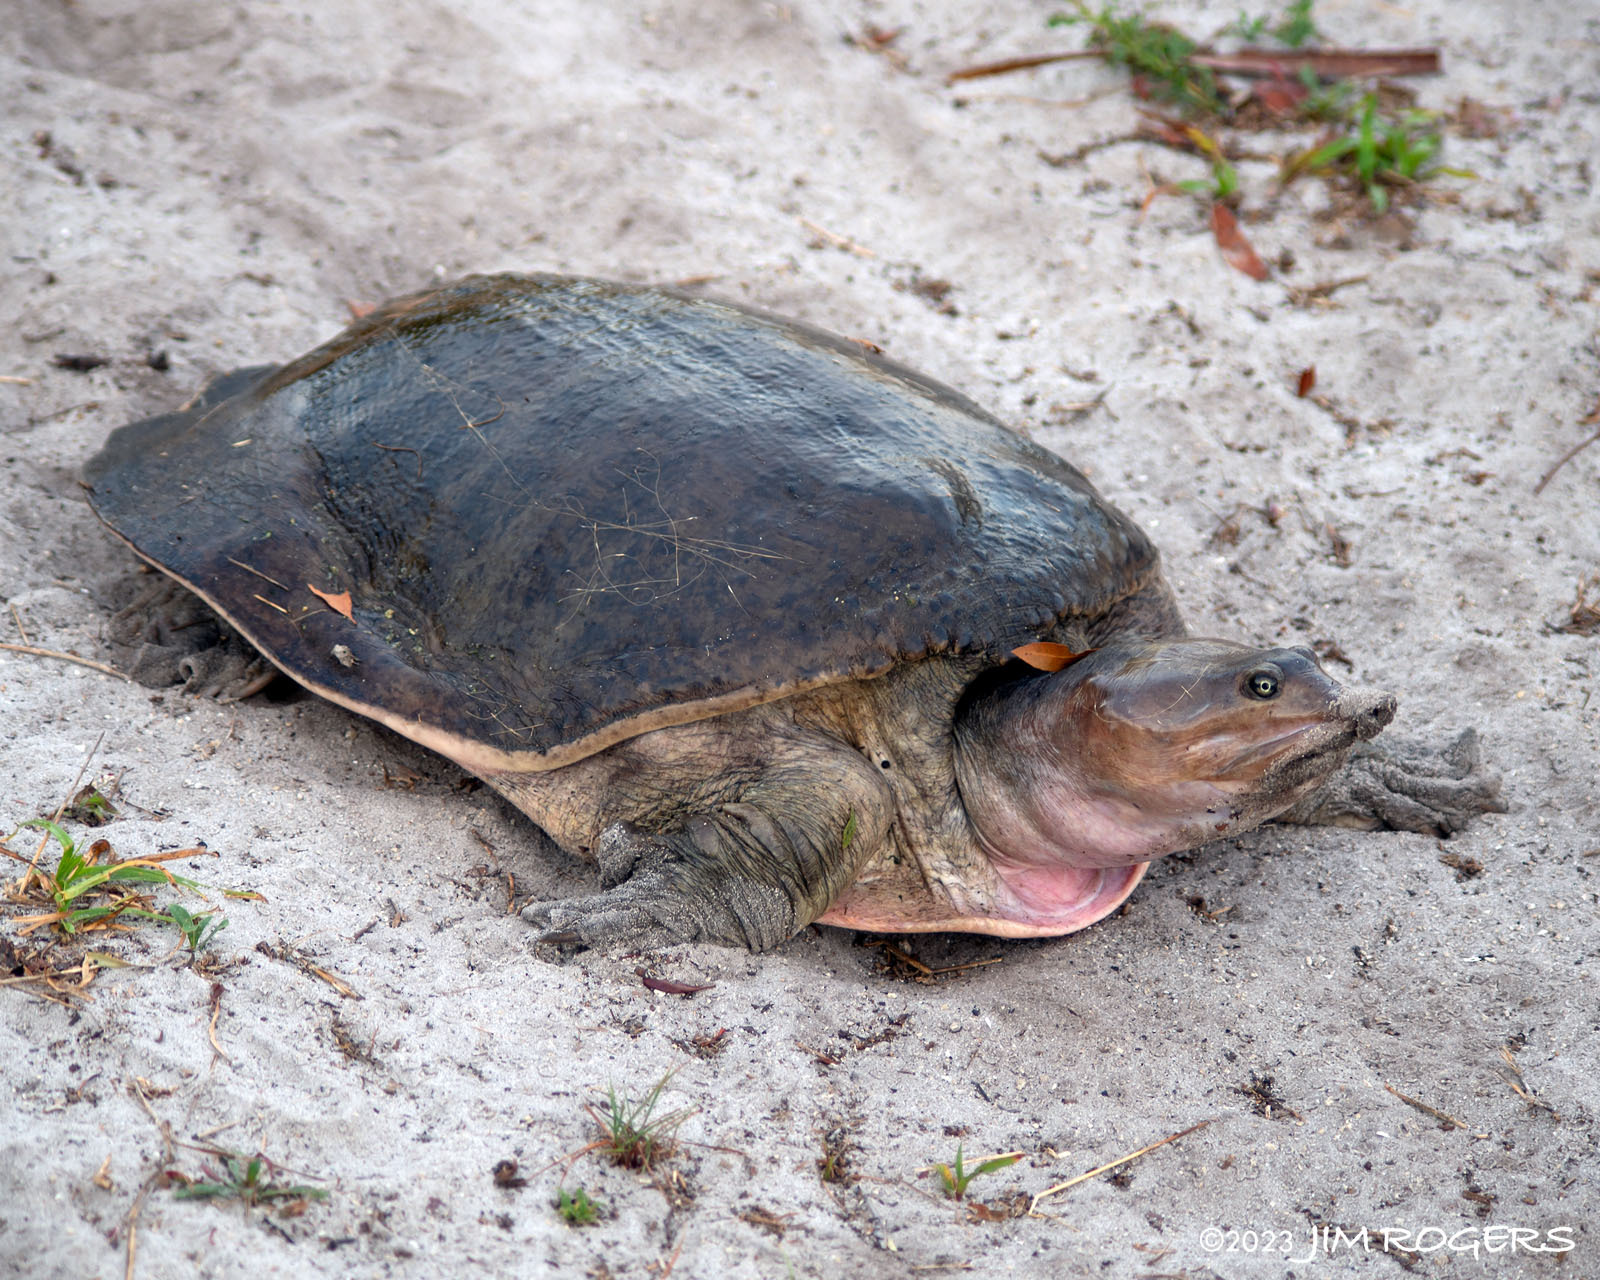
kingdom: Animalia
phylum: Chordata
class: Testudines
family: Trionychidae
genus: Apalone
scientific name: Apalone ferox
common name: Florida softshell turtle
